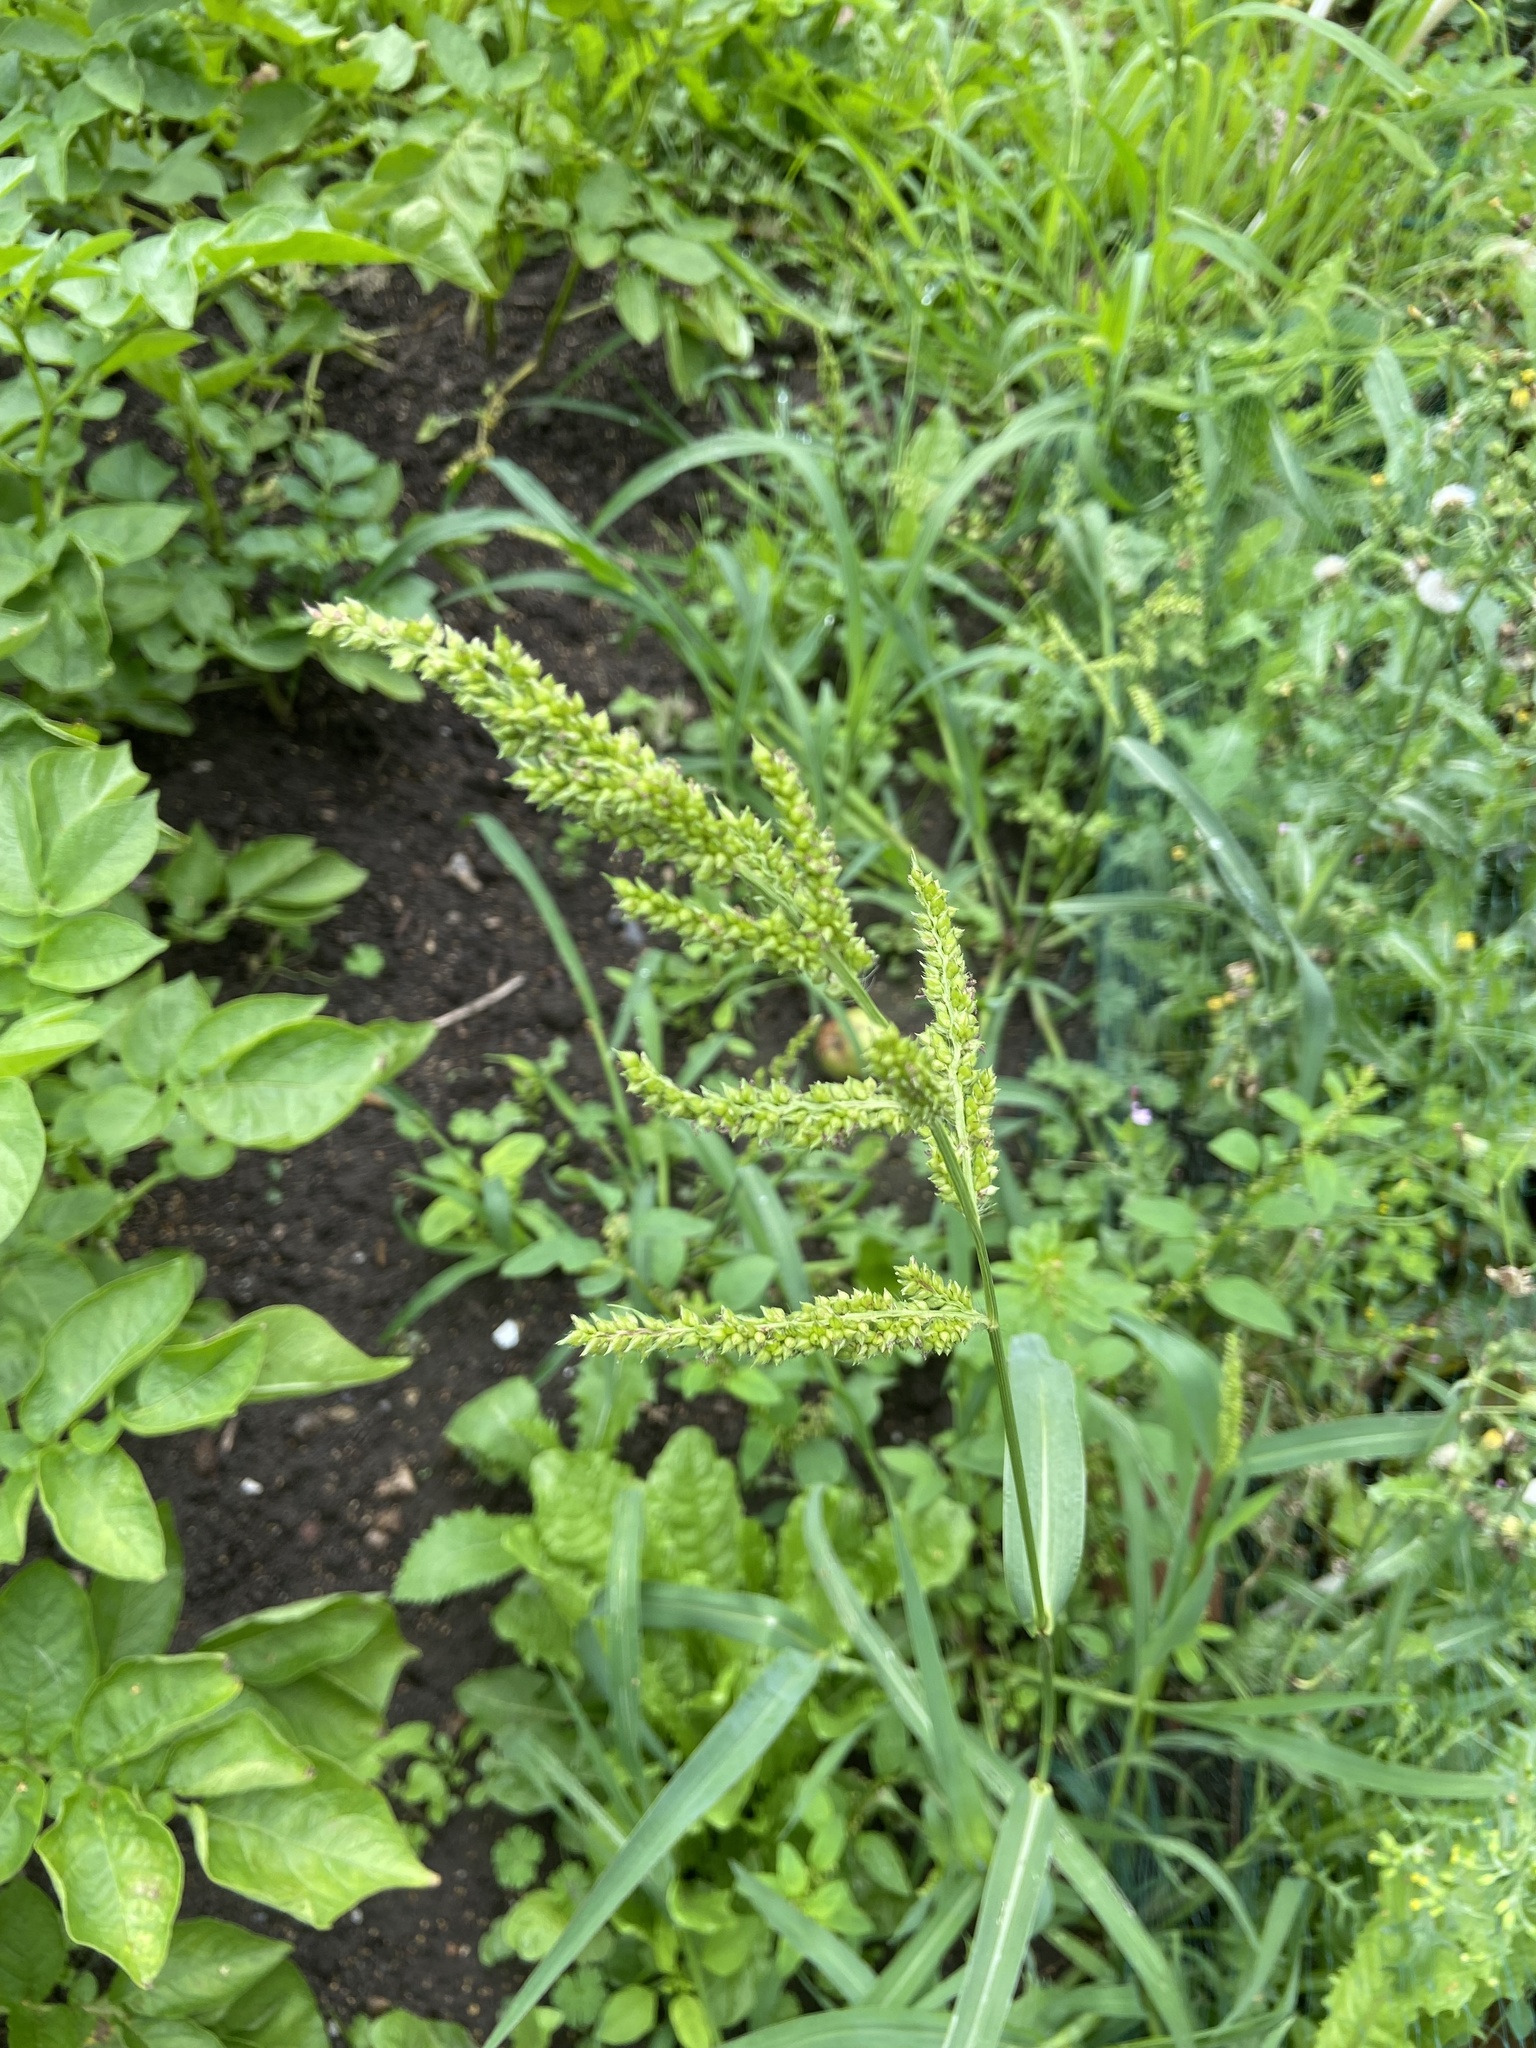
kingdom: Plantae
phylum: Tracheophyta
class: Liliopsida
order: Poales
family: Poaceae
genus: Echinochloa
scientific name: Echinochloa crus-galli
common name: Cockspur
